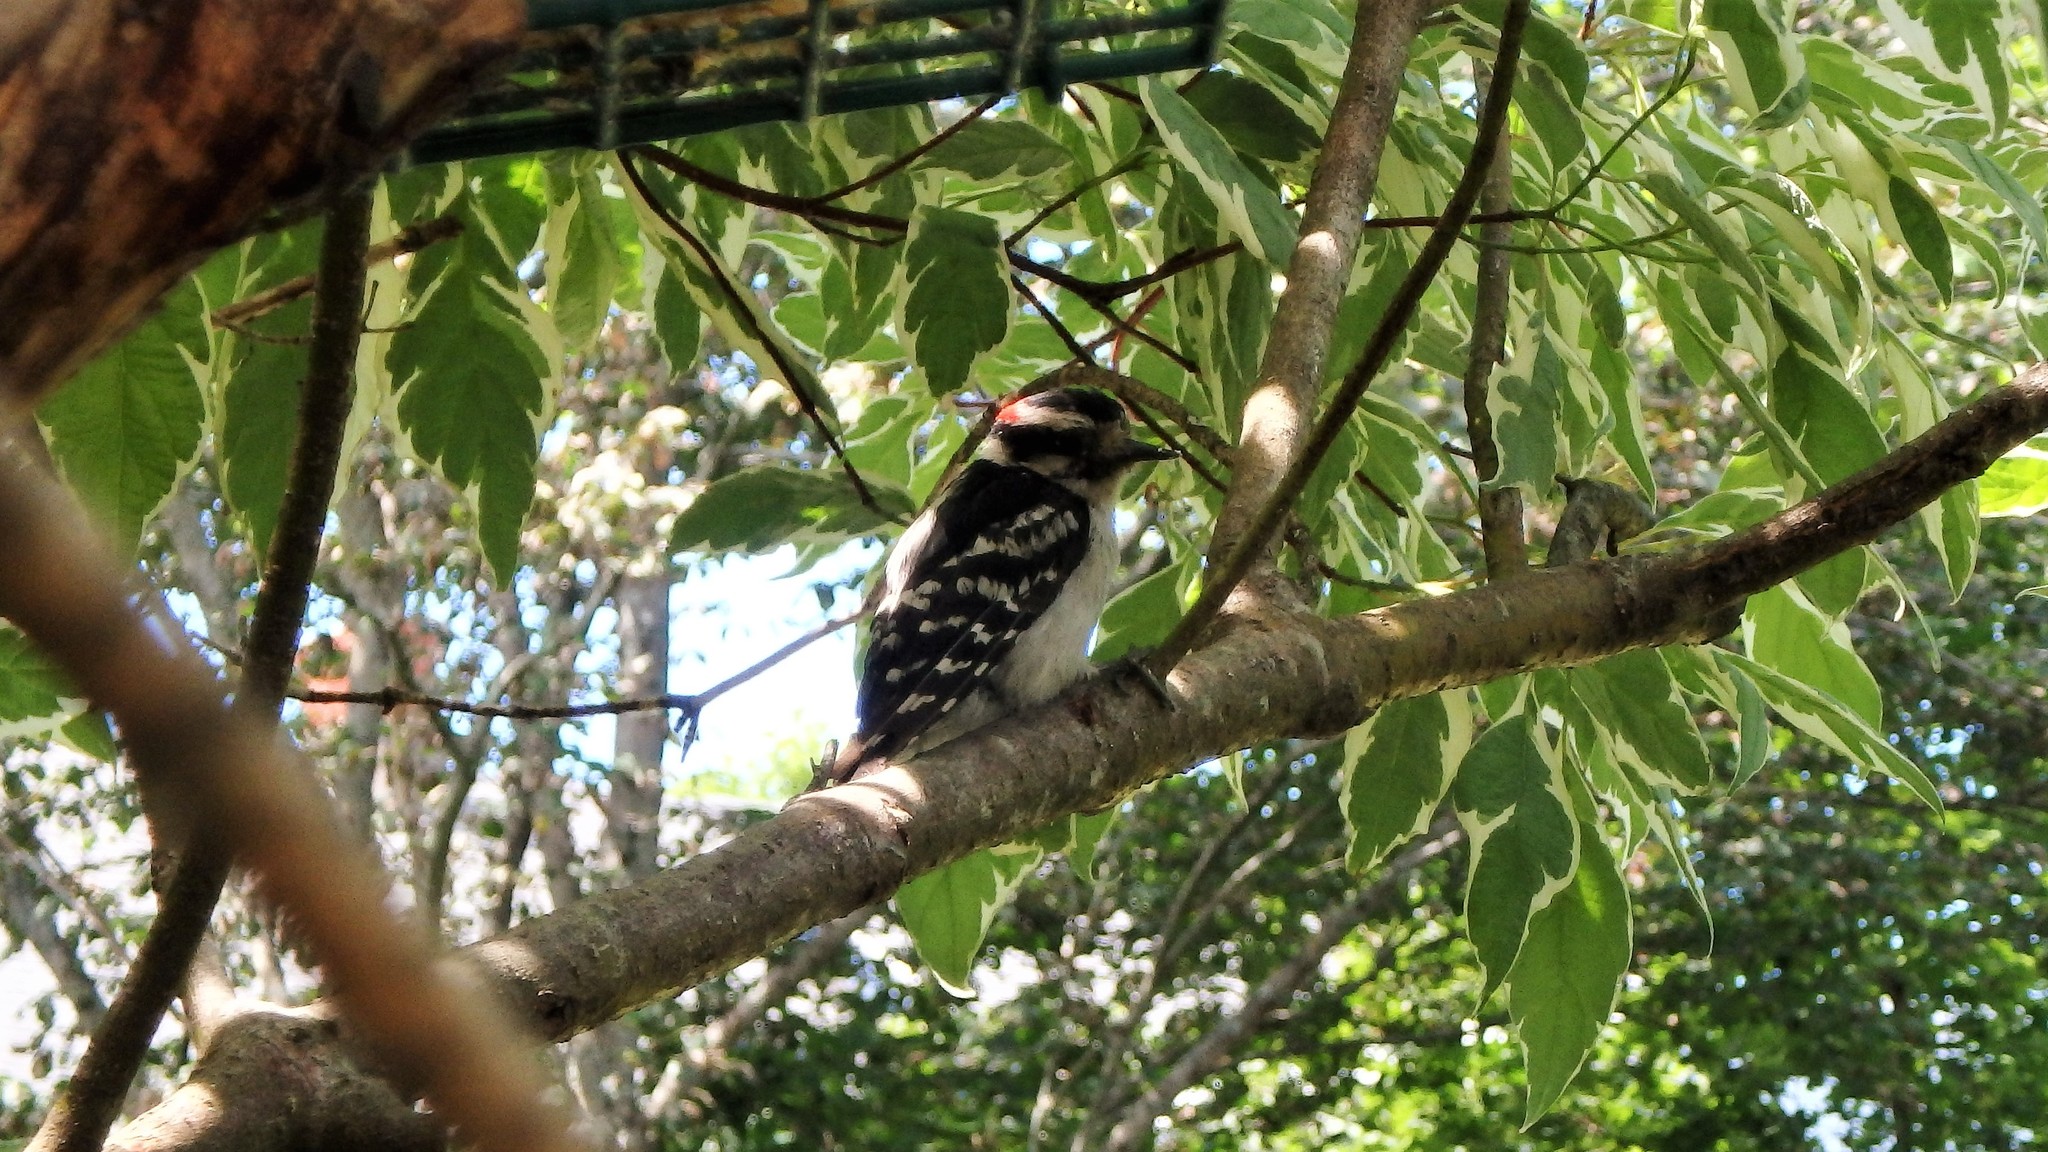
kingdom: Animalia
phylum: Chordata
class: Aves
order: Piciformes
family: Picidae
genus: Dryobates
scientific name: Dryobates pubescens
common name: Downy woodpecker
